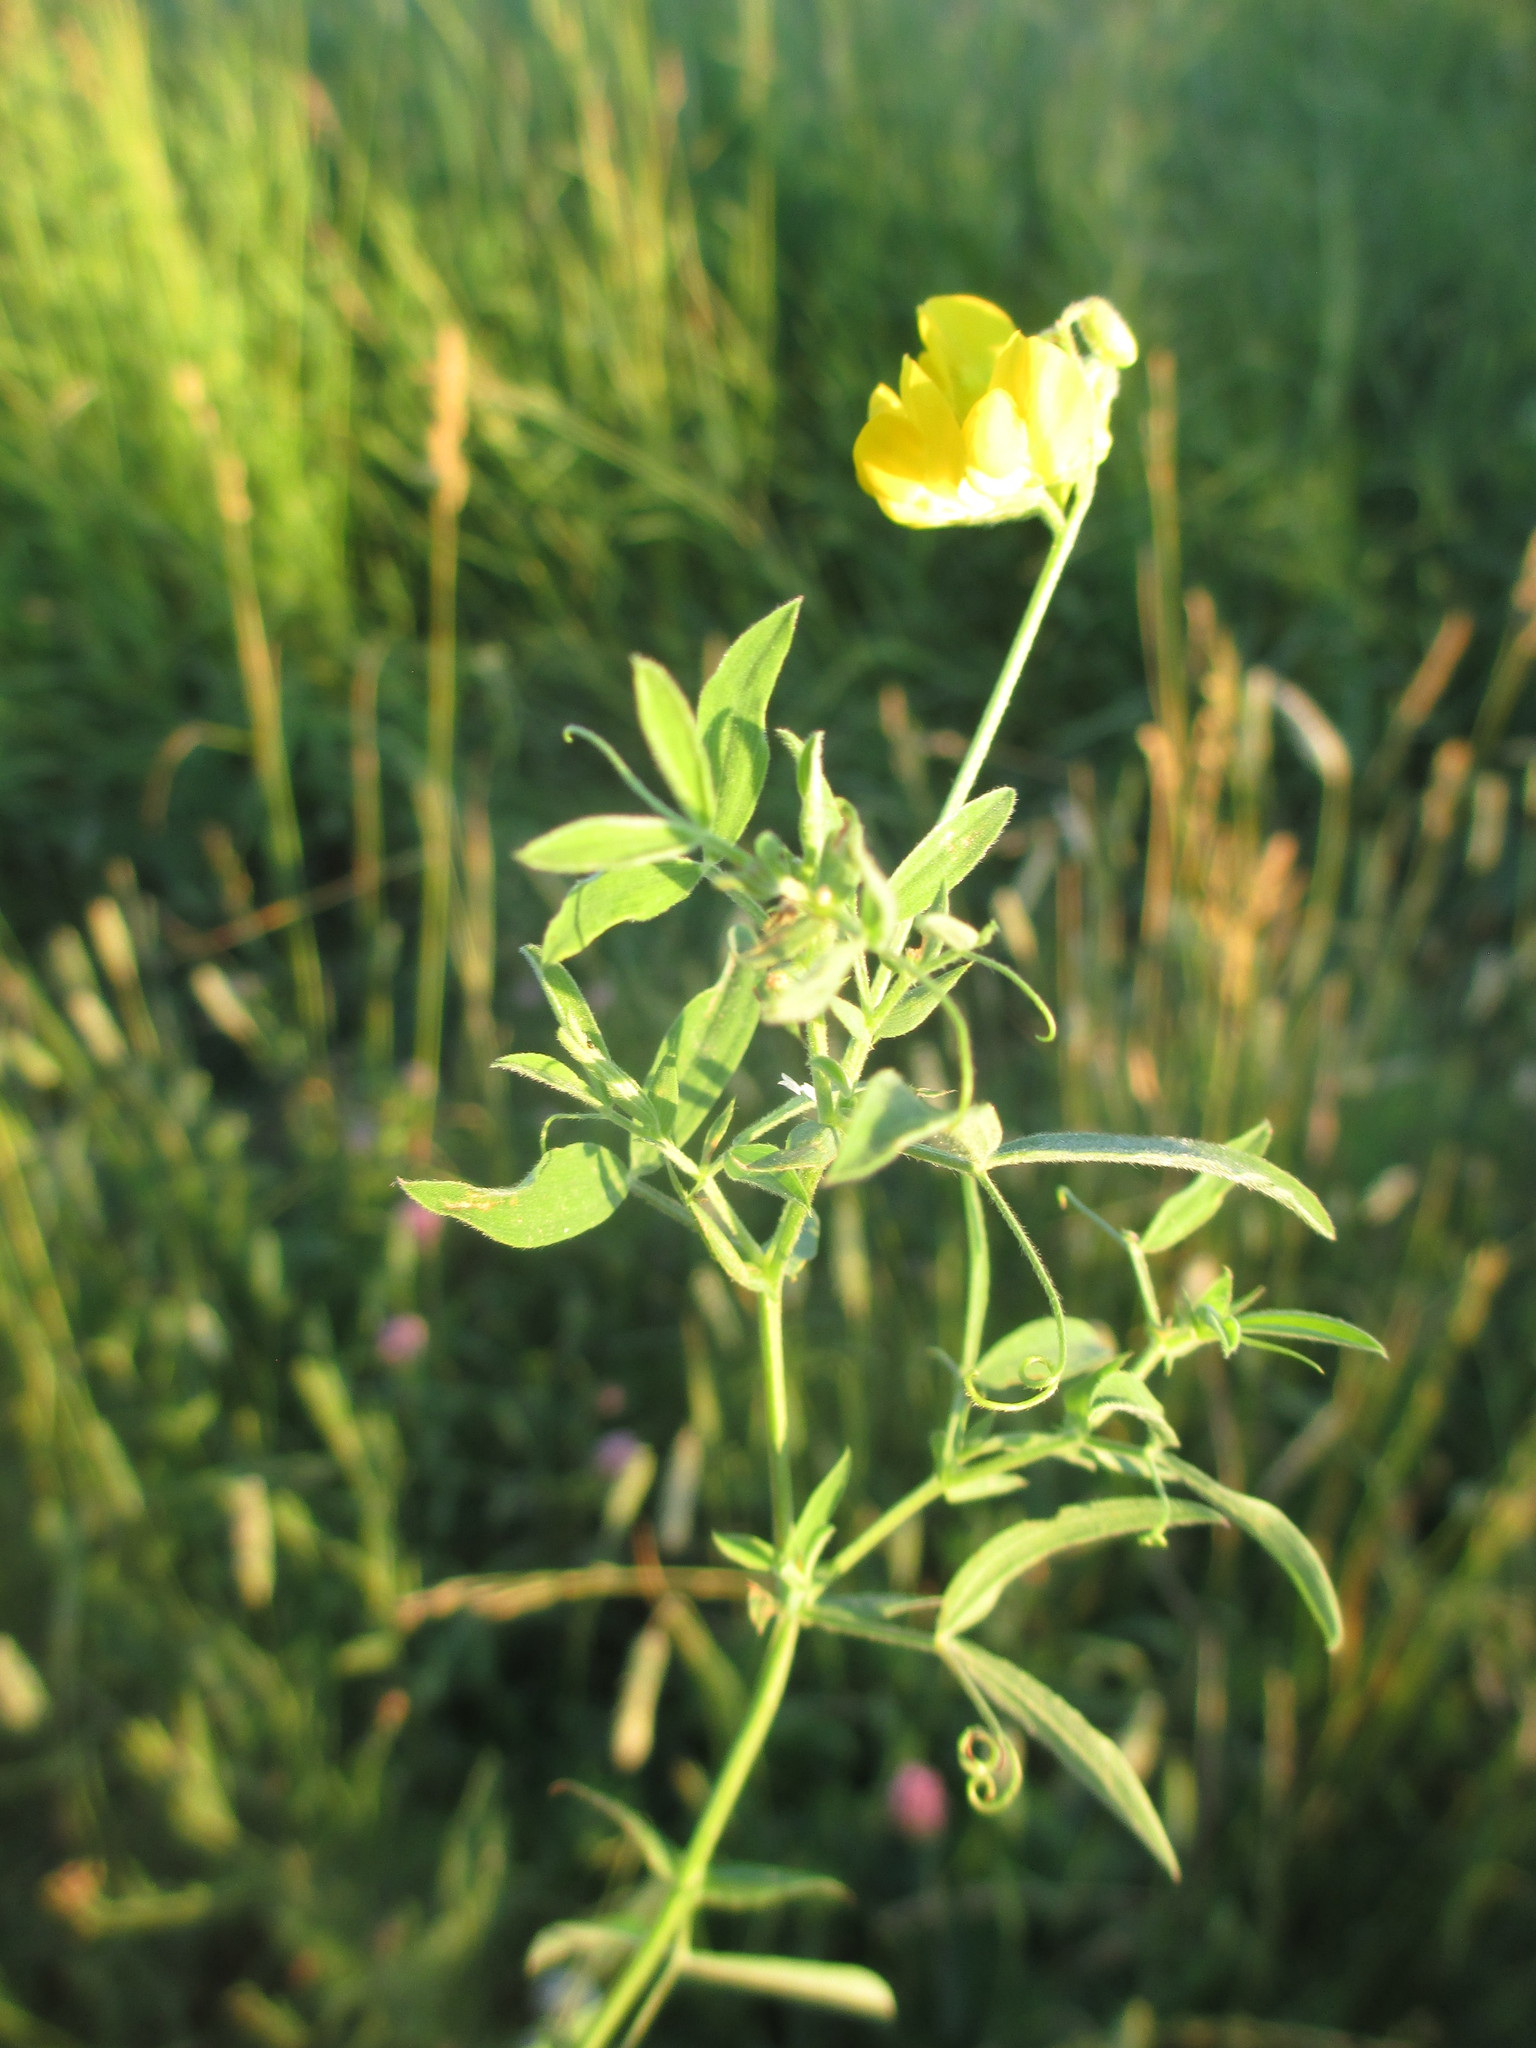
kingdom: Plantae
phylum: Tracheophyta
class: Magnoliopsida
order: Fabales
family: Fabaceae
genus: Lathyrus
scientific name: Lathyrus pratensis
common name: Meadow vetchling
